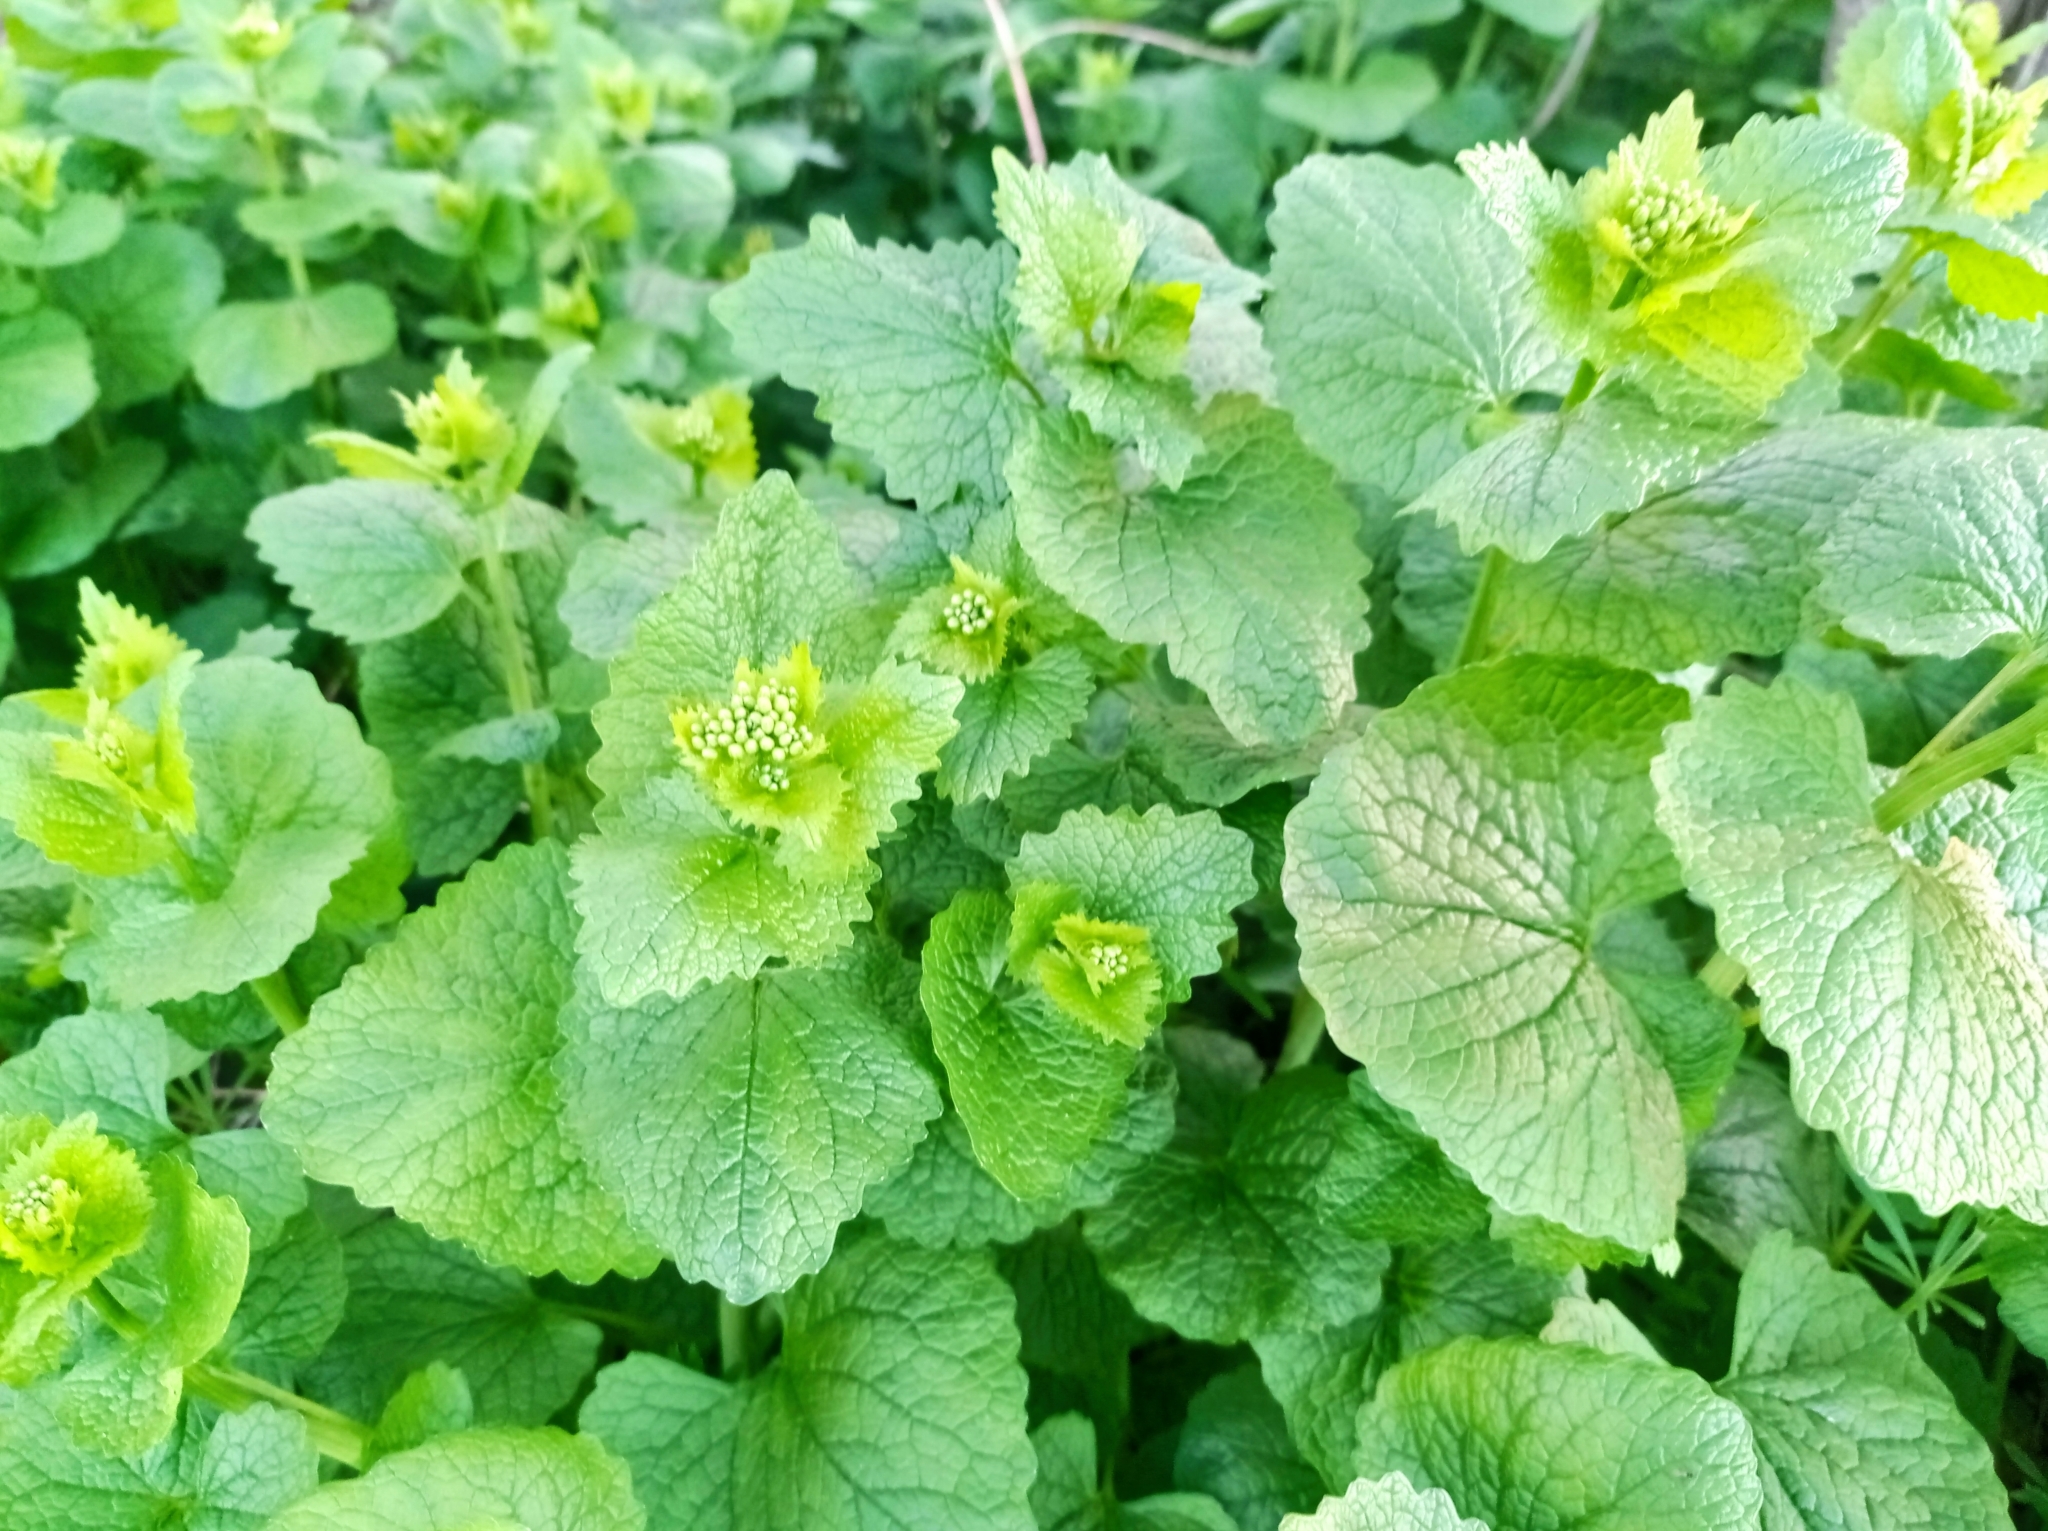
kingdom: Plantae
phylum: Tracheophyta
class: Magnoliopsida
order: Brassicales
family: Brassicaceae
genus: Alliaria
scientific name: Alliaria petiolata
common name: Garlic mustard
